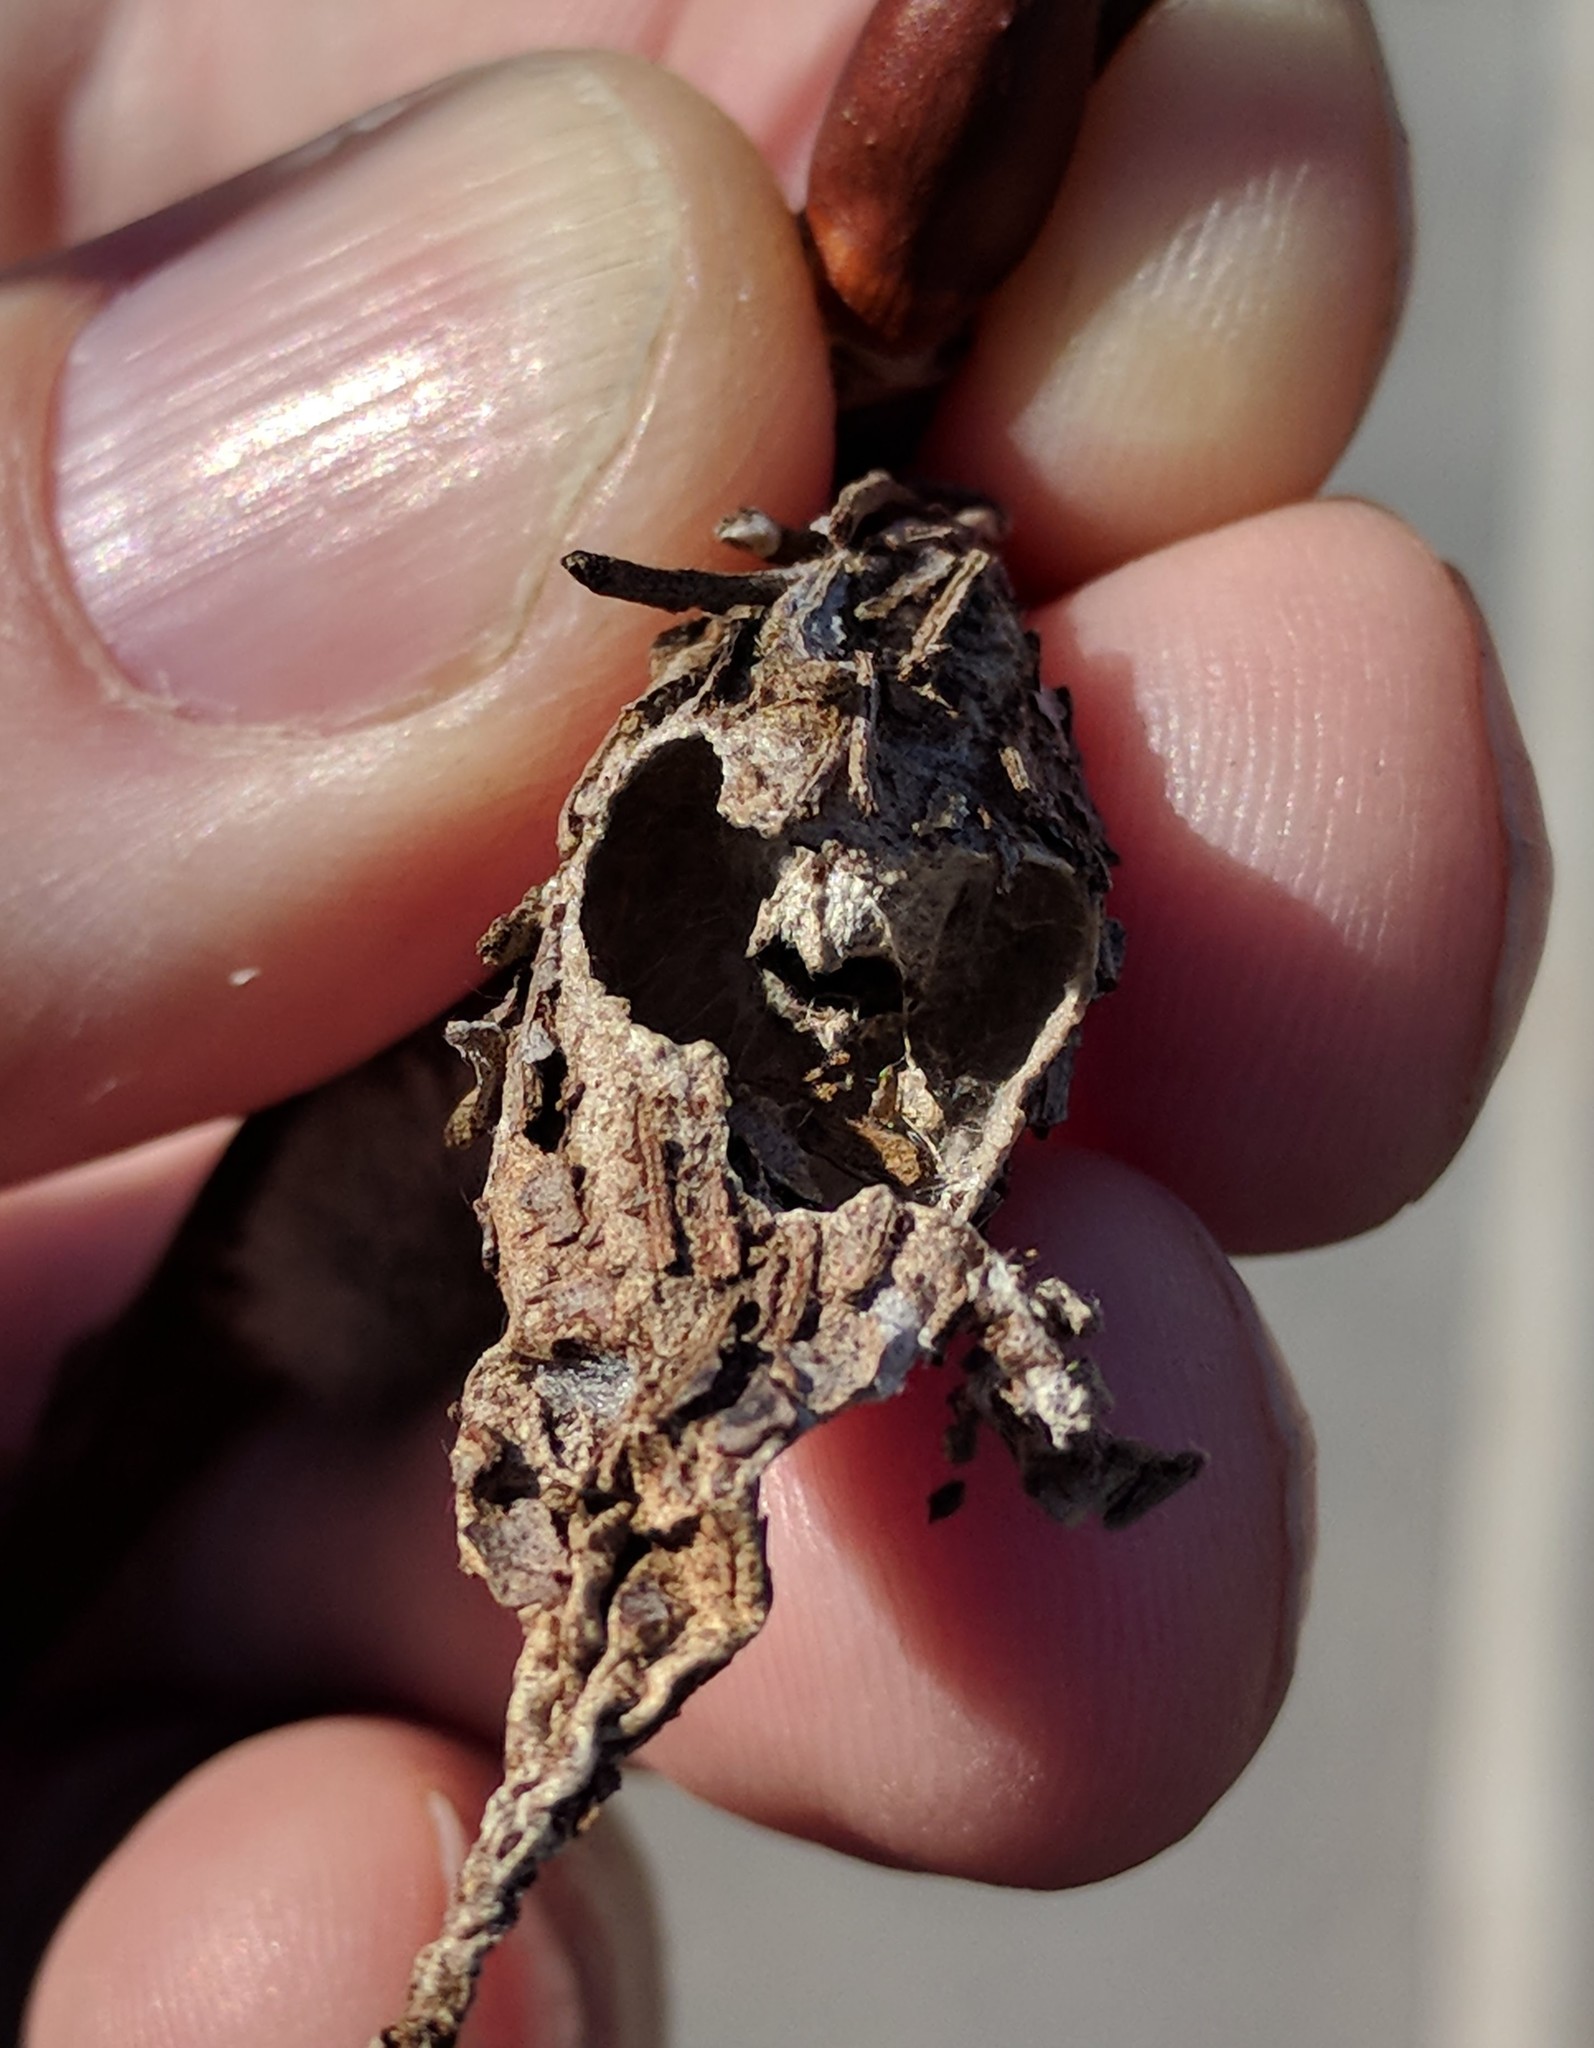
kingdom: Animalia
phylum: Arthropoda
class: Insecta
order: Lepidoptera
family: Psychidae
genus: Thyridopteryx
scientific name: Thyridopteryx ephemeraeformis
